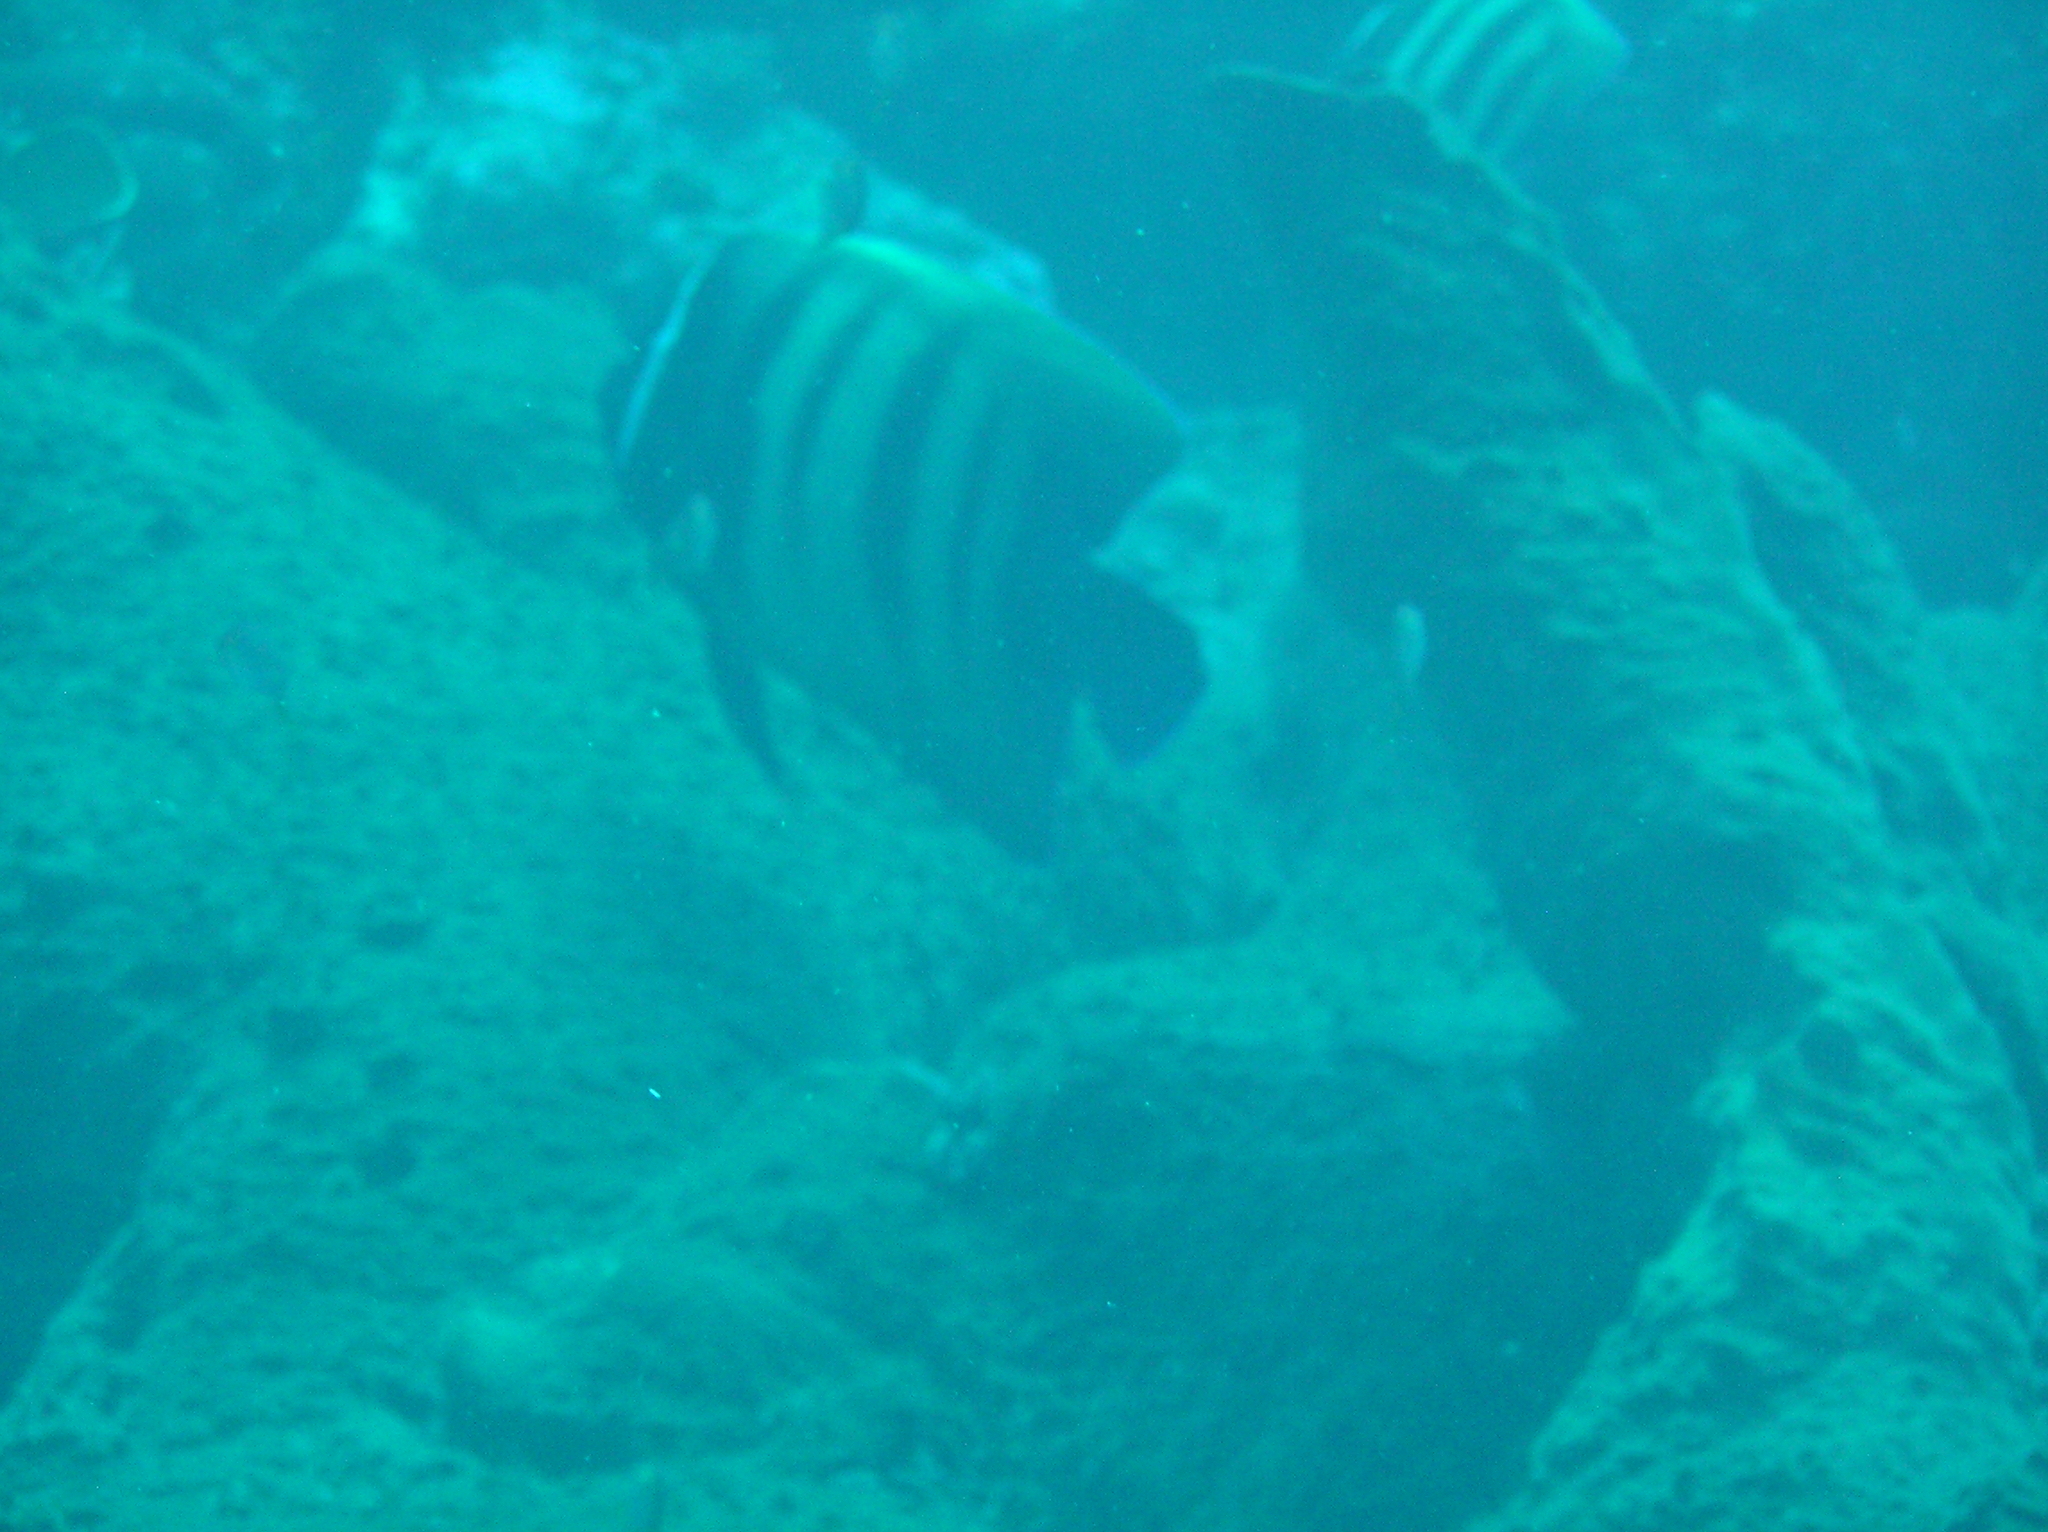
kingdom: Animalia
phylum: Chordata
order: Perciformes
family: Pomacanthidae
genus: Pomacanthus
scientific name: Pomacanthus sexstriatus
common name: Six-banded angelfish
